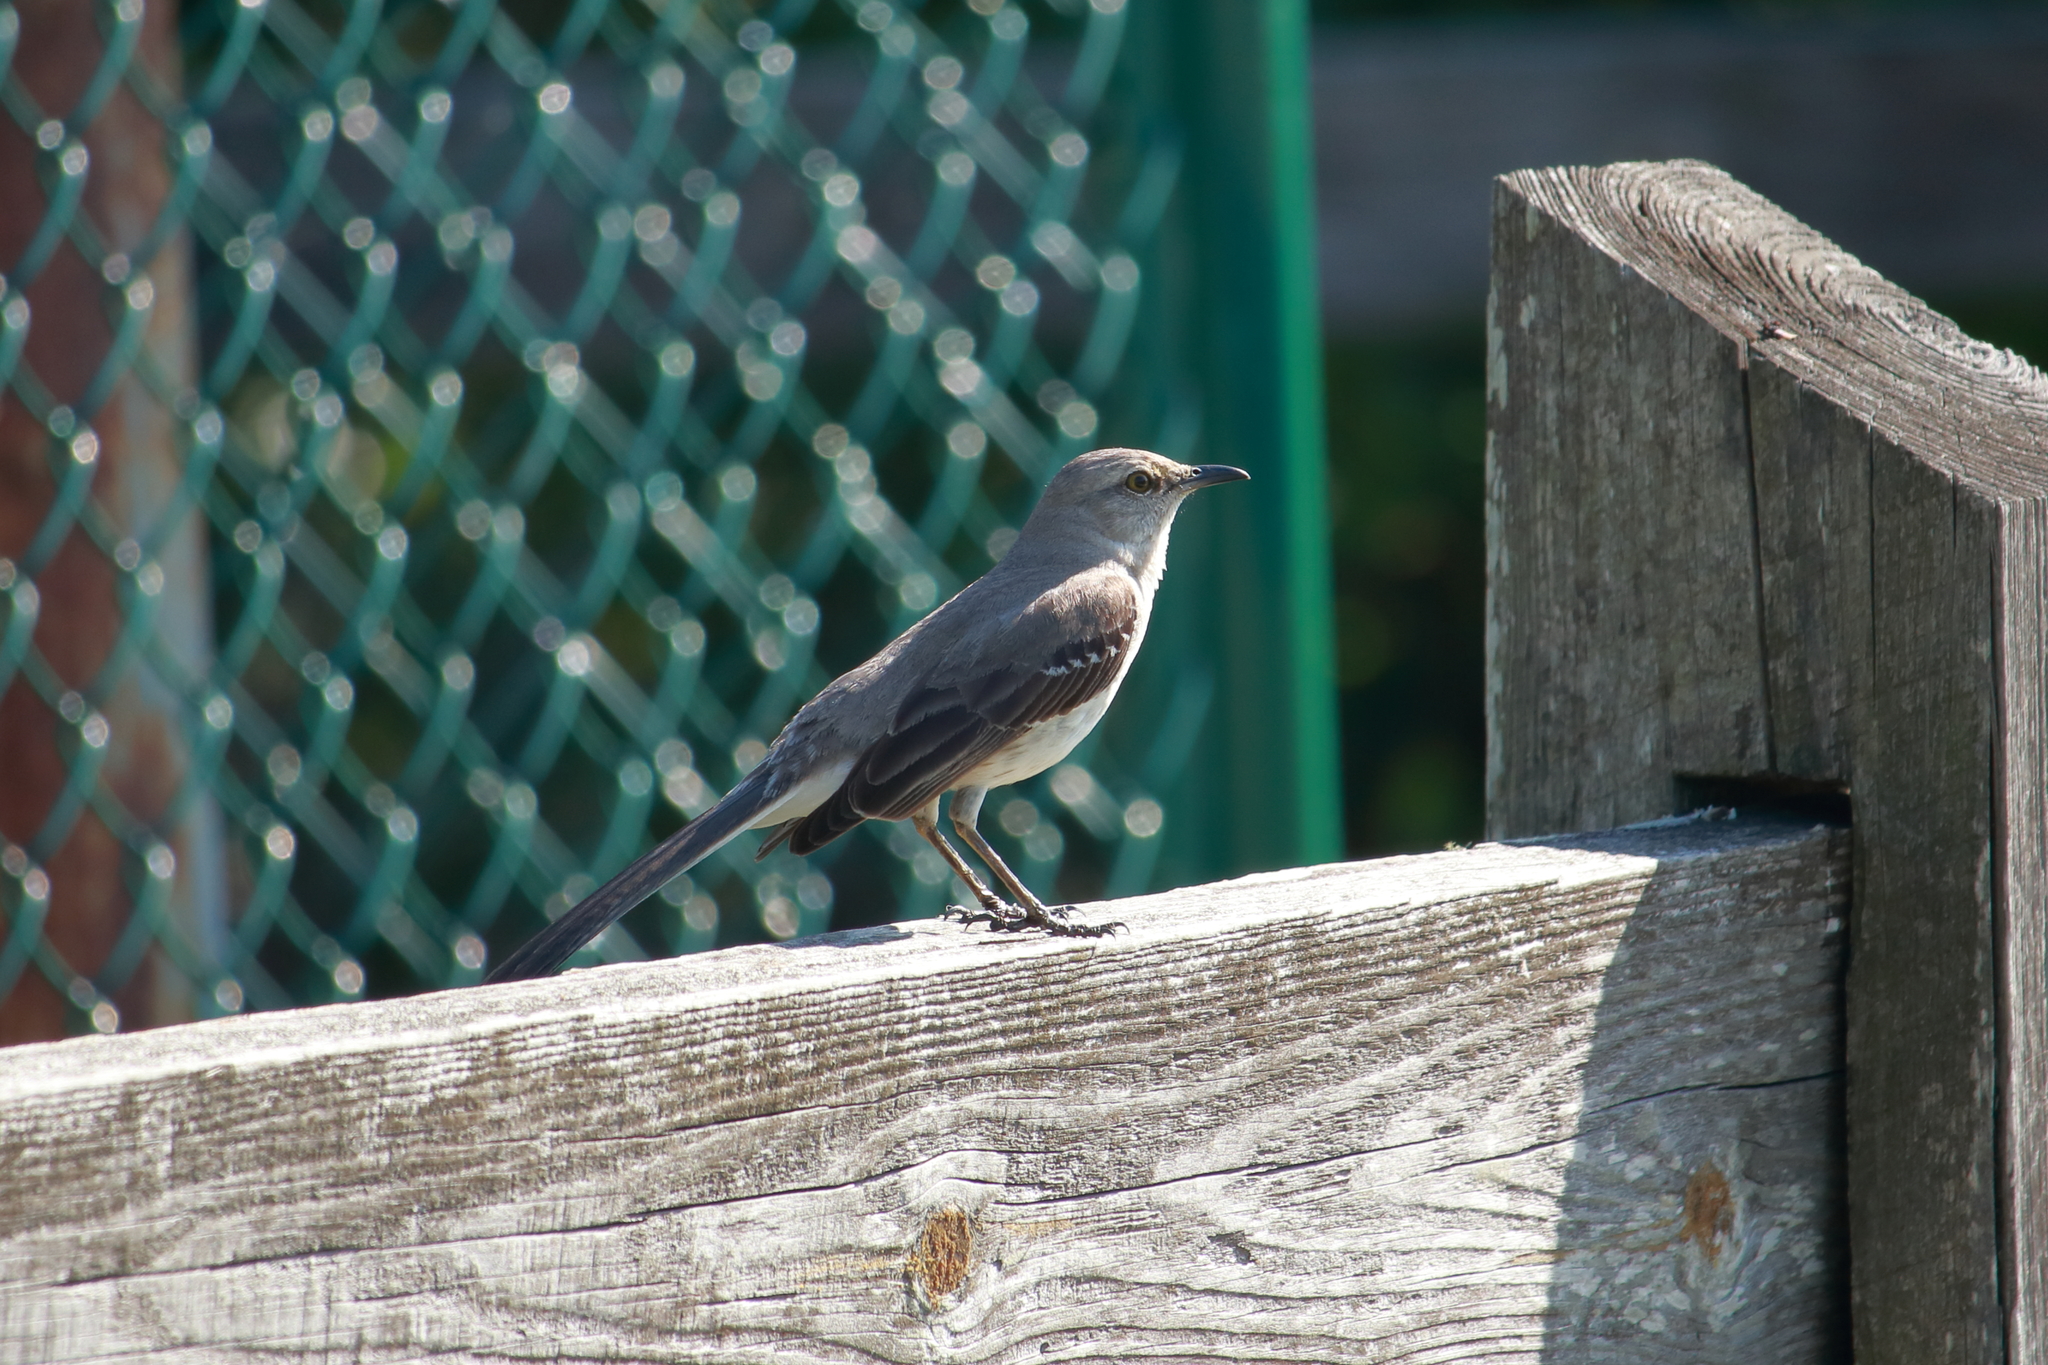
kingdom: Animalia
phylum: Chordata
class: Aves
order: Passeriformes
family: Mimidae
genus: Mimus
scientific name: Mimus polyglottos
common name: Northern mockingbird
